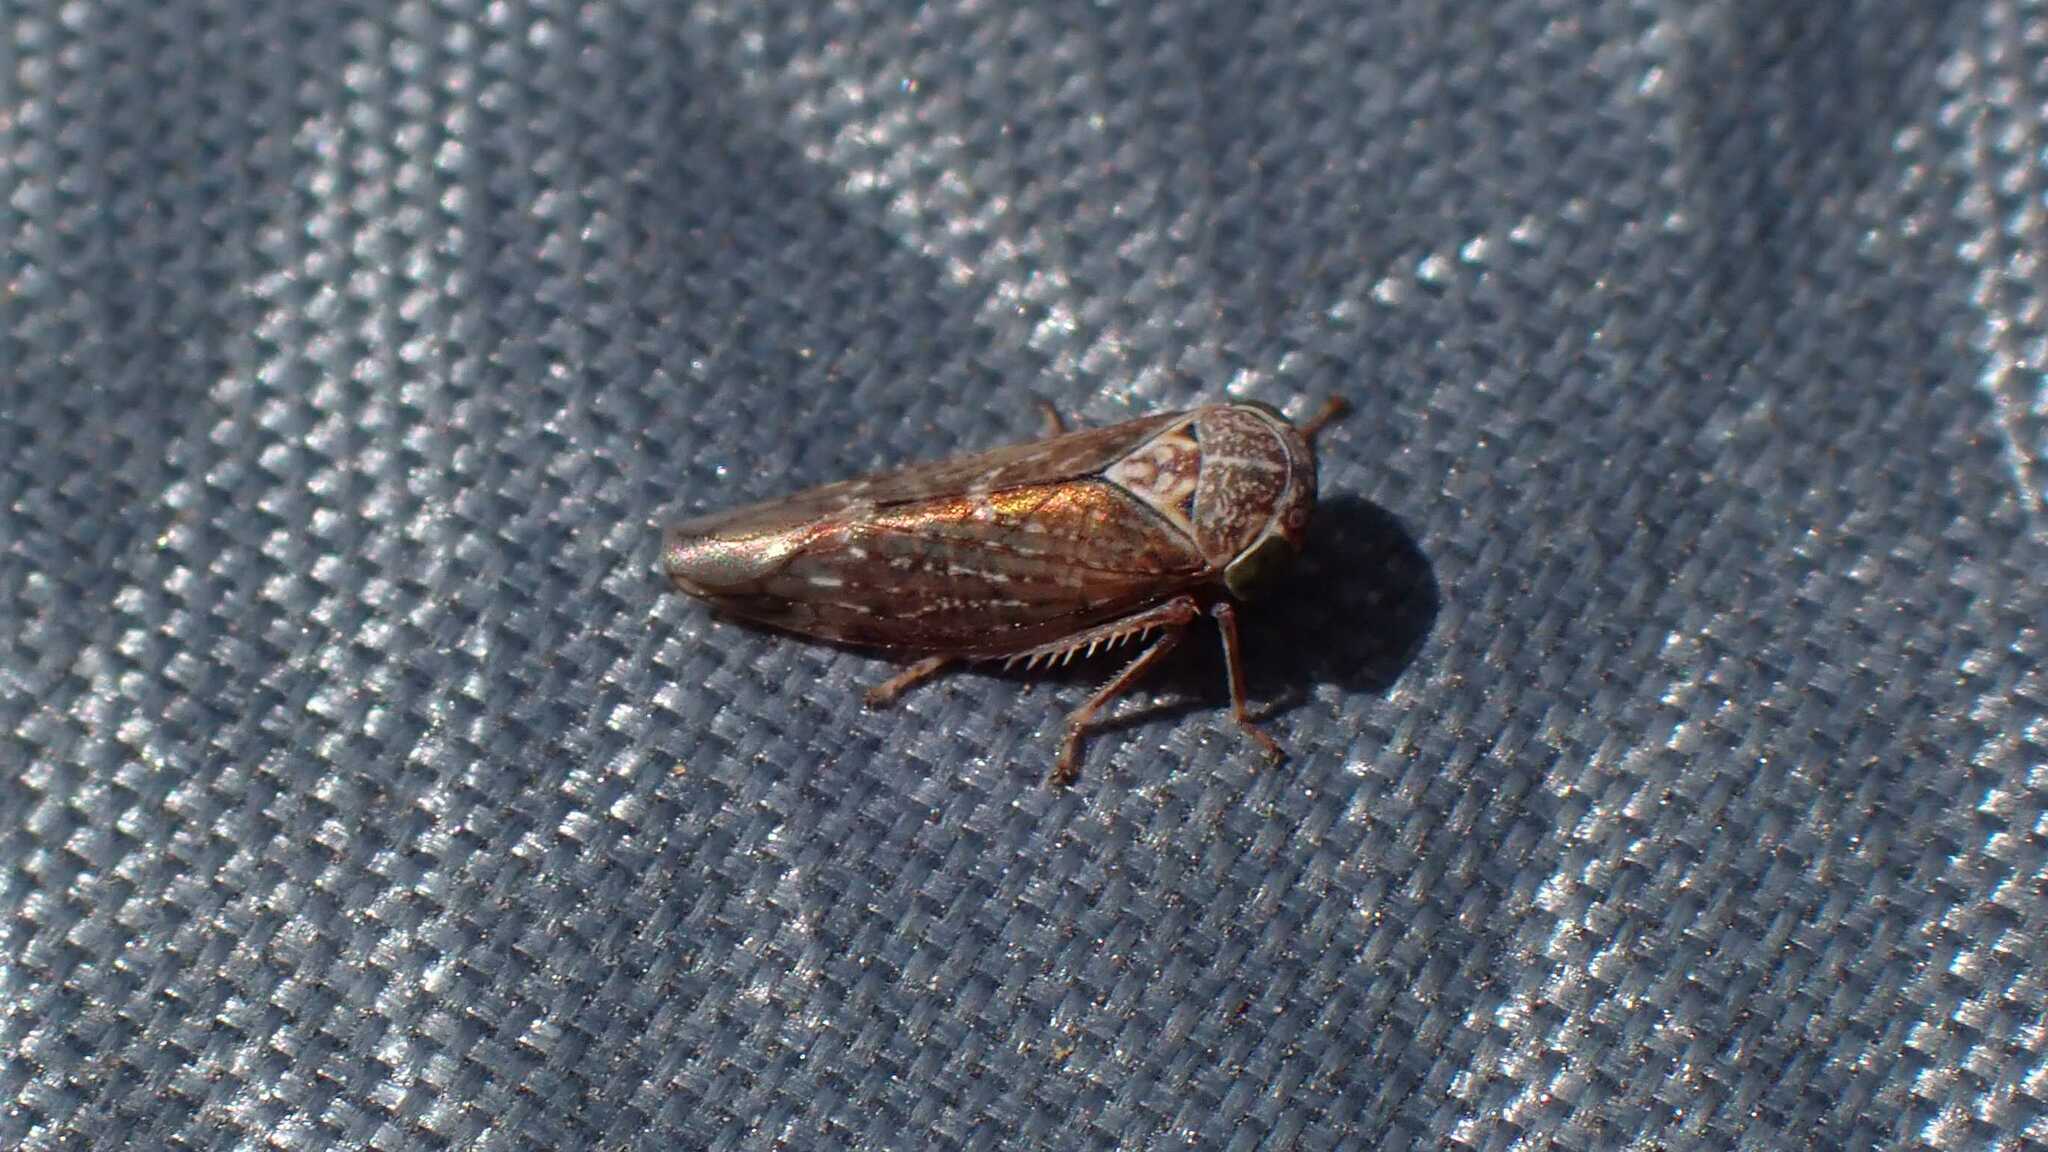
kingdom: Animalia
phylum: Arthropoda
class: Insecta
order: Hemiptera
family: Cicadellidae
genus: Acericerus
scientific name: Acericerus ribauti
